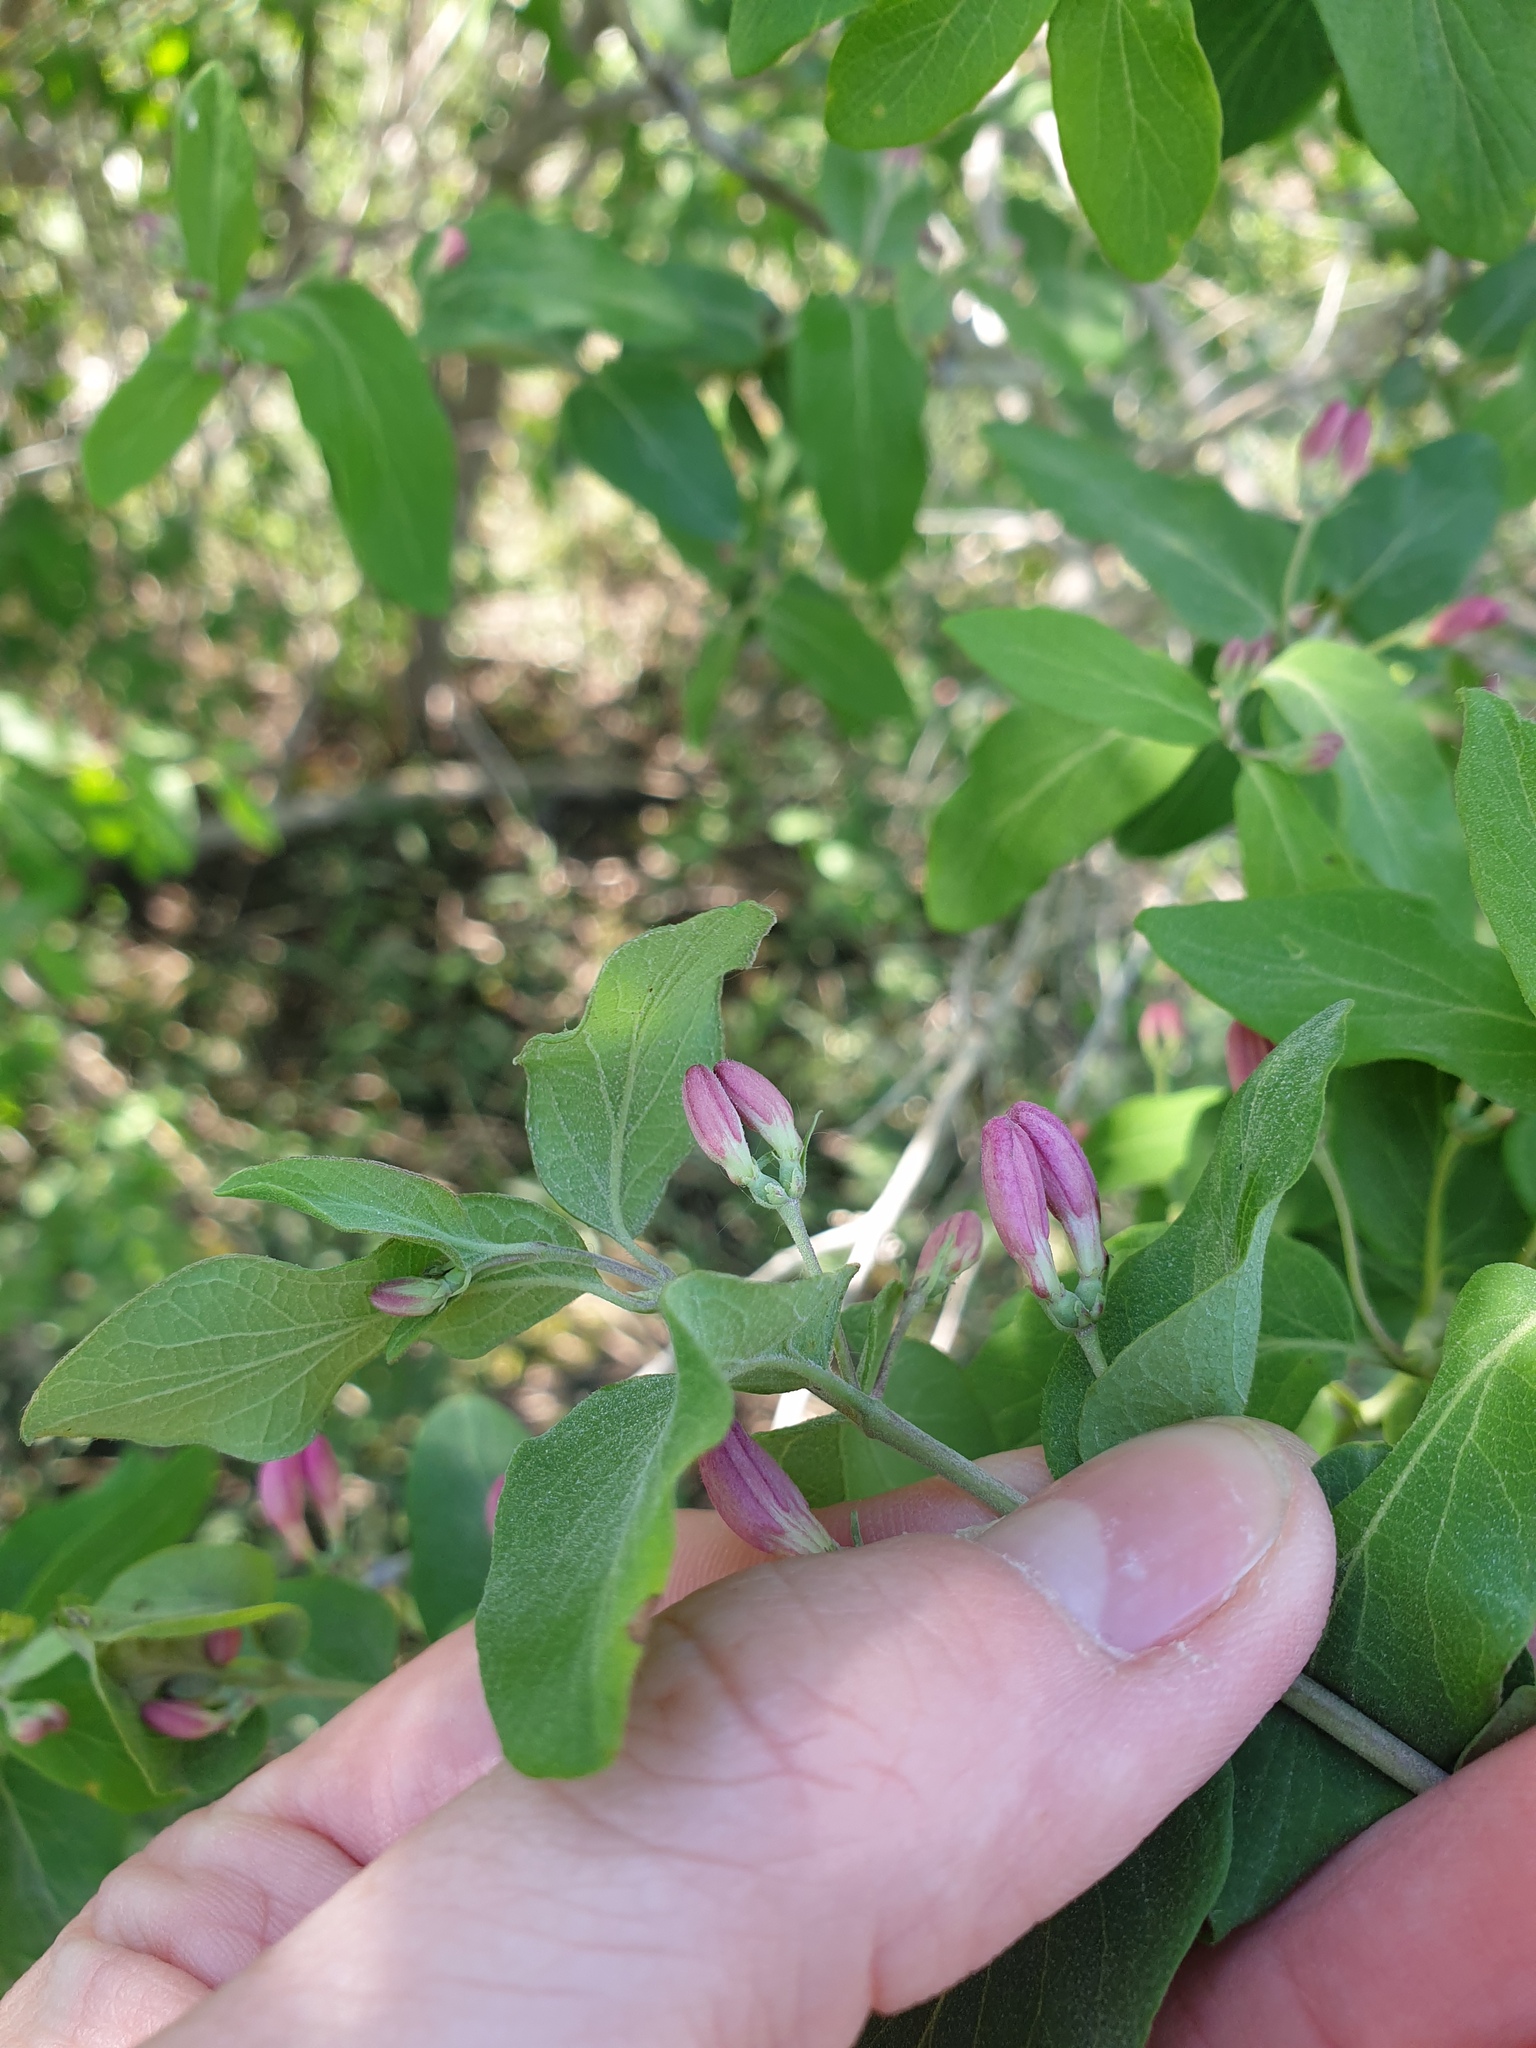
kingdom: Plantae
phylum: Tracheophyta
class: Magnoliopsida
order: Dipsacales
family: Caprifoliaceae
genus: Lonicera
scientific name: Lonicera bella
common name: Bell's honeysuckle
